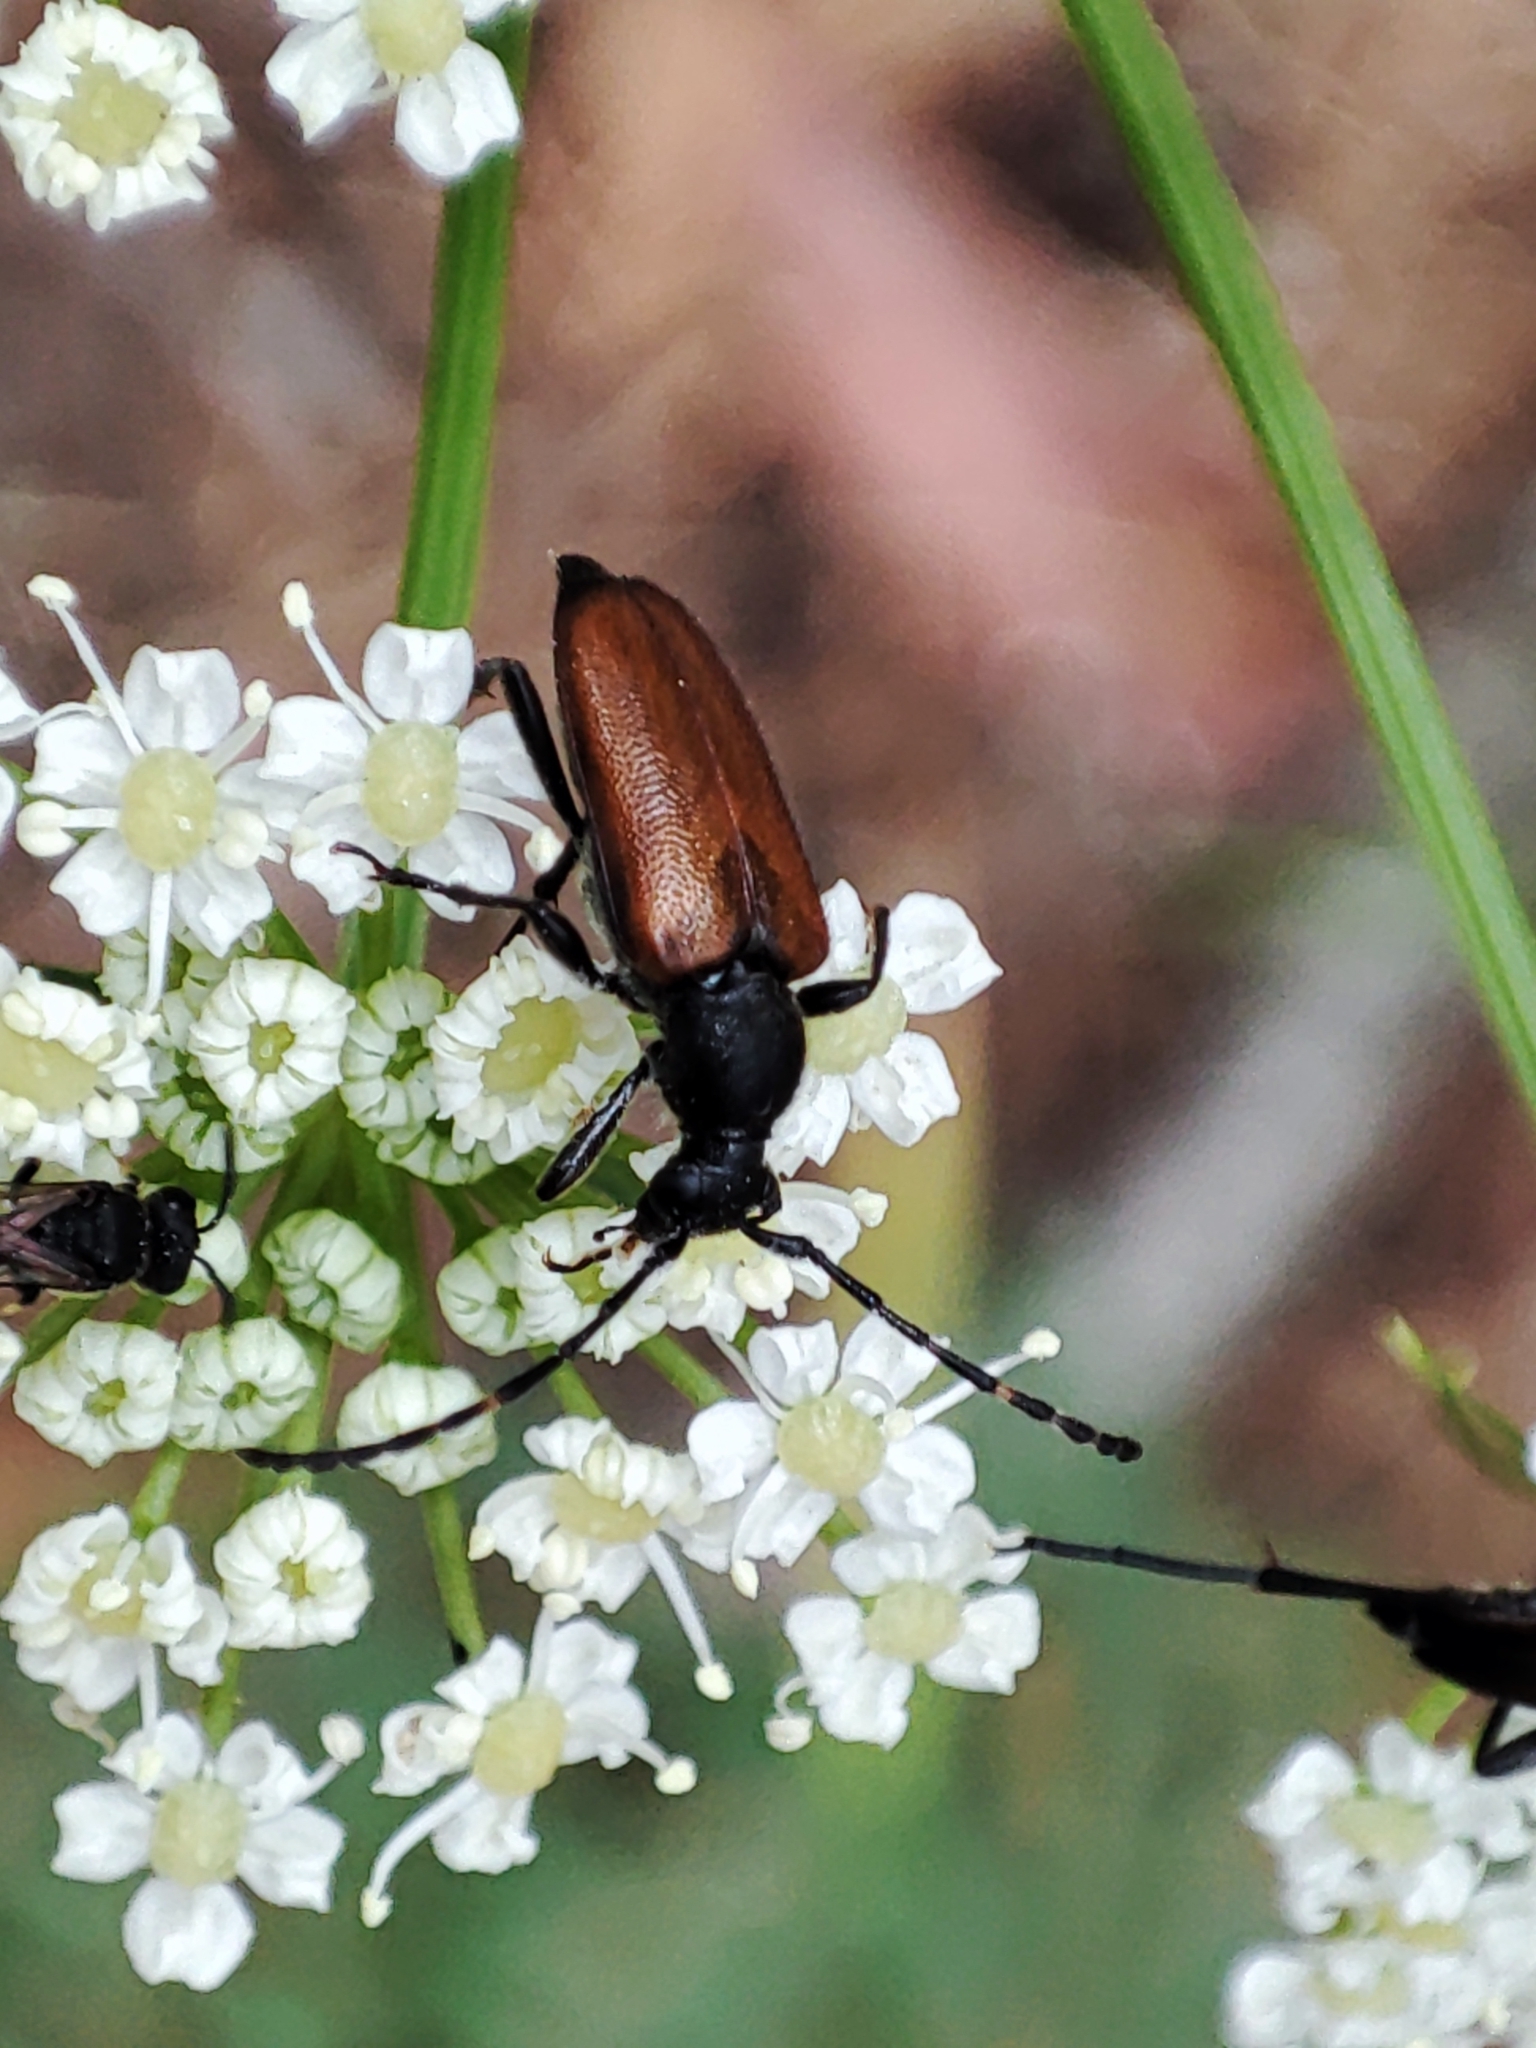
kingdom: Animalia
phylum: Arthropoda
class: Insecta
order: Coleoptera
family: Cerambycidae
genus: Paracorymbia
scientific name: Paracorymbia maculicornis
